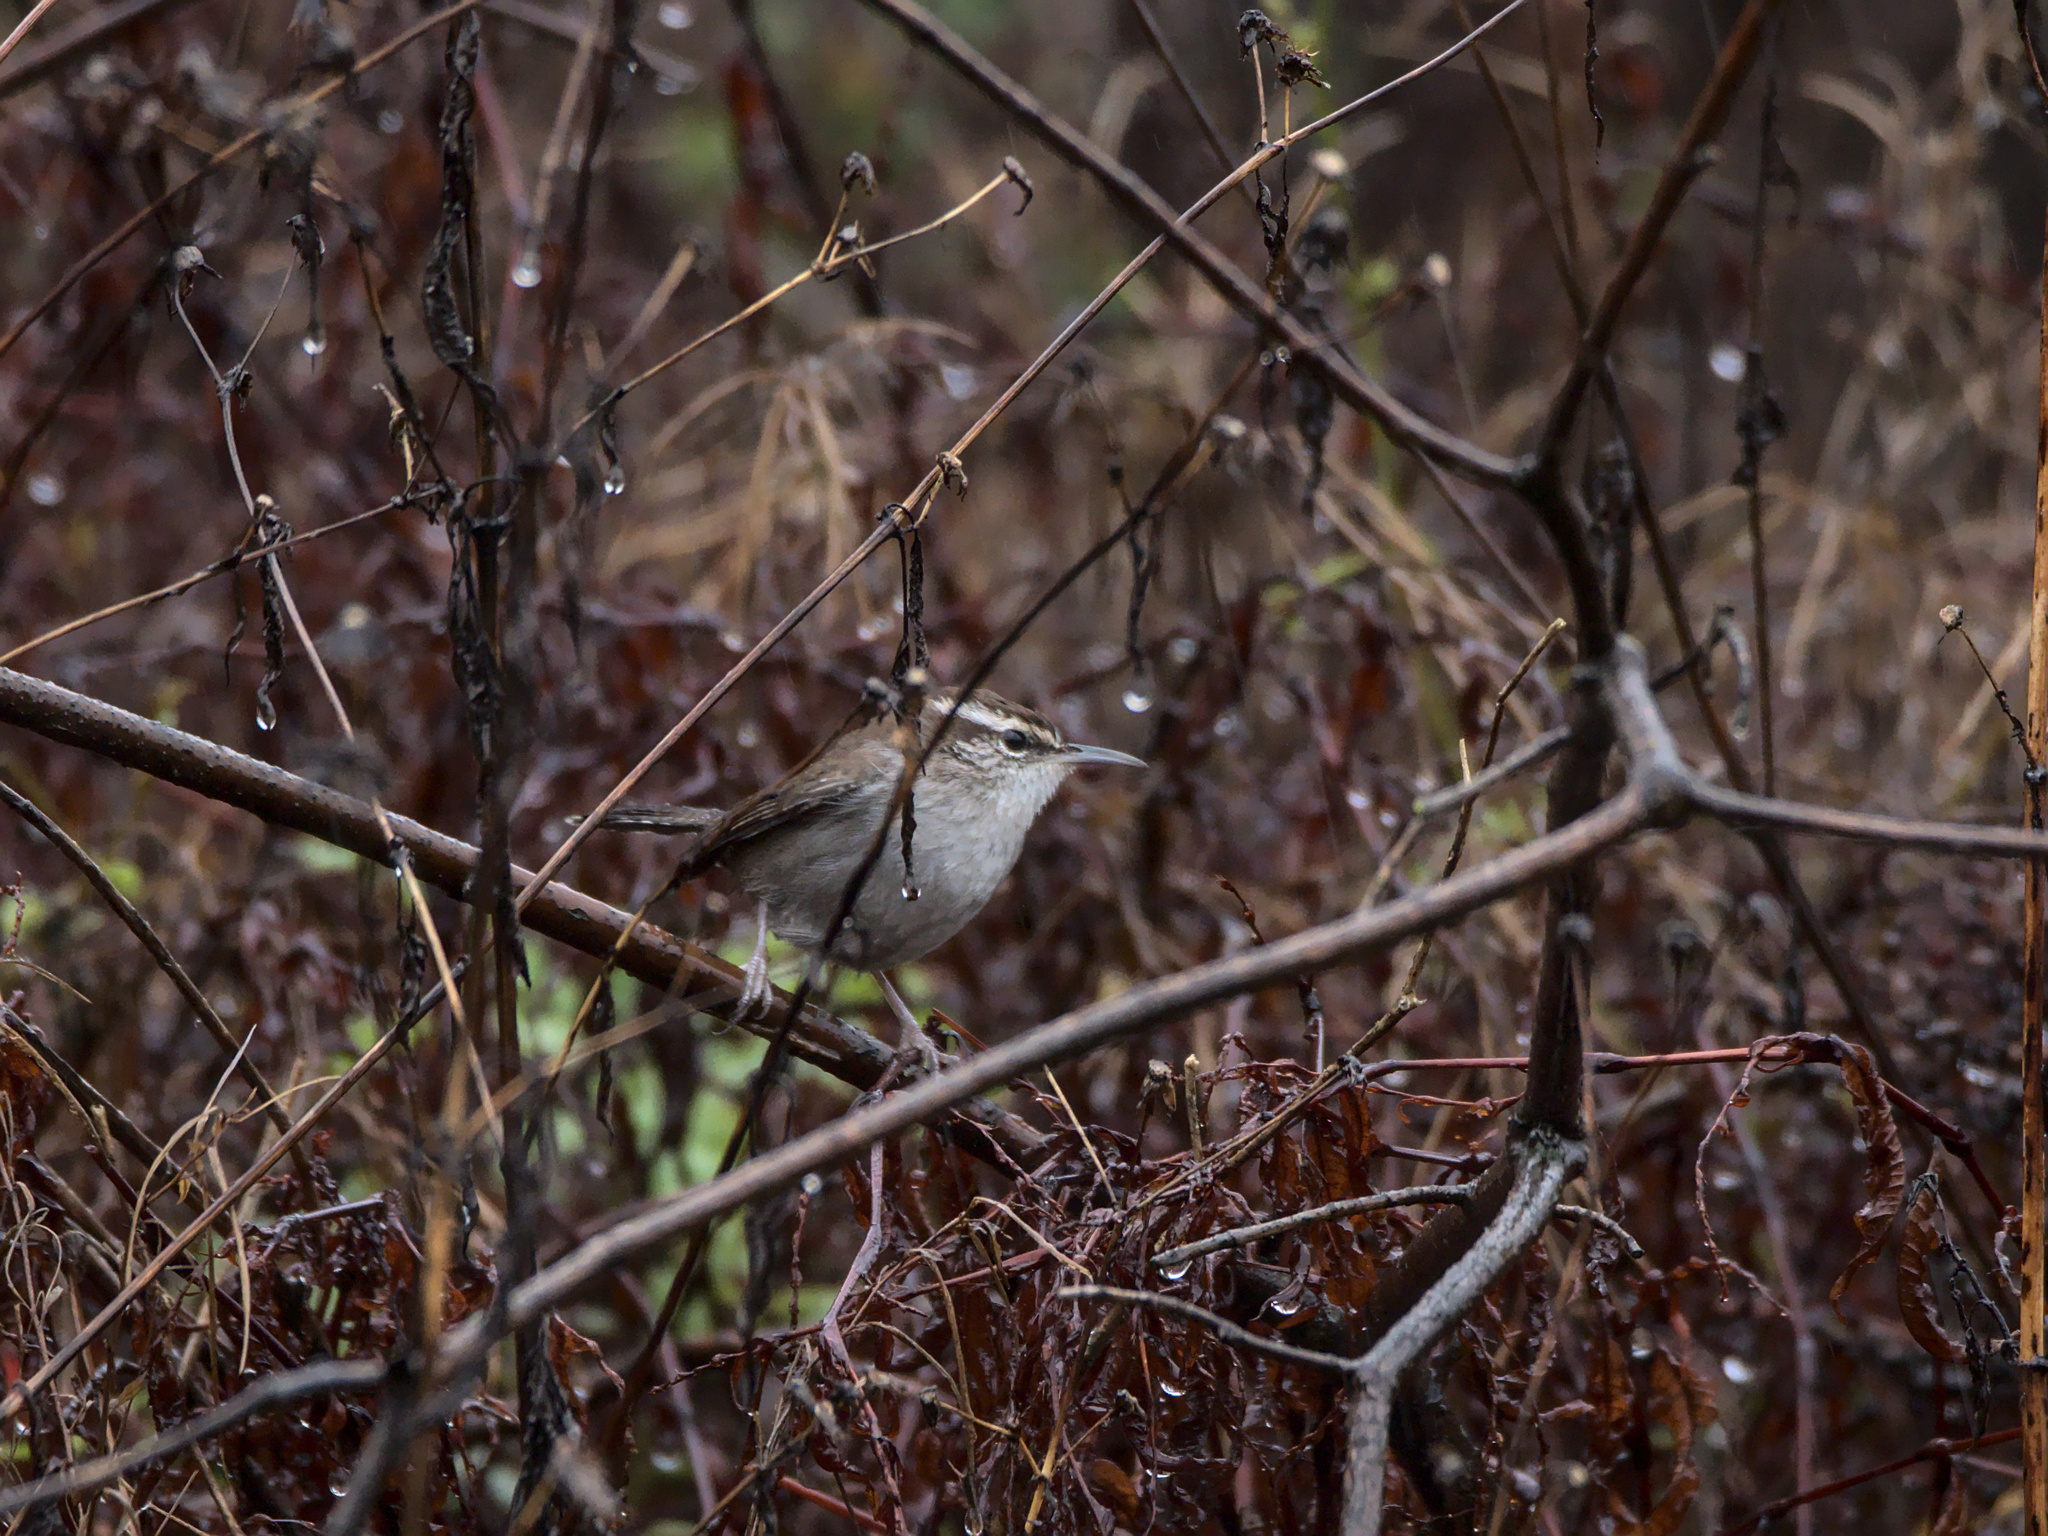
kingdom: Animalia
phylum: Chordata
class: Aves
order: Passeriformes
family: Troglodytidae
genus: Thryomanes
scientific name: Thryomanes bewickii
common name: Bewick's wren
